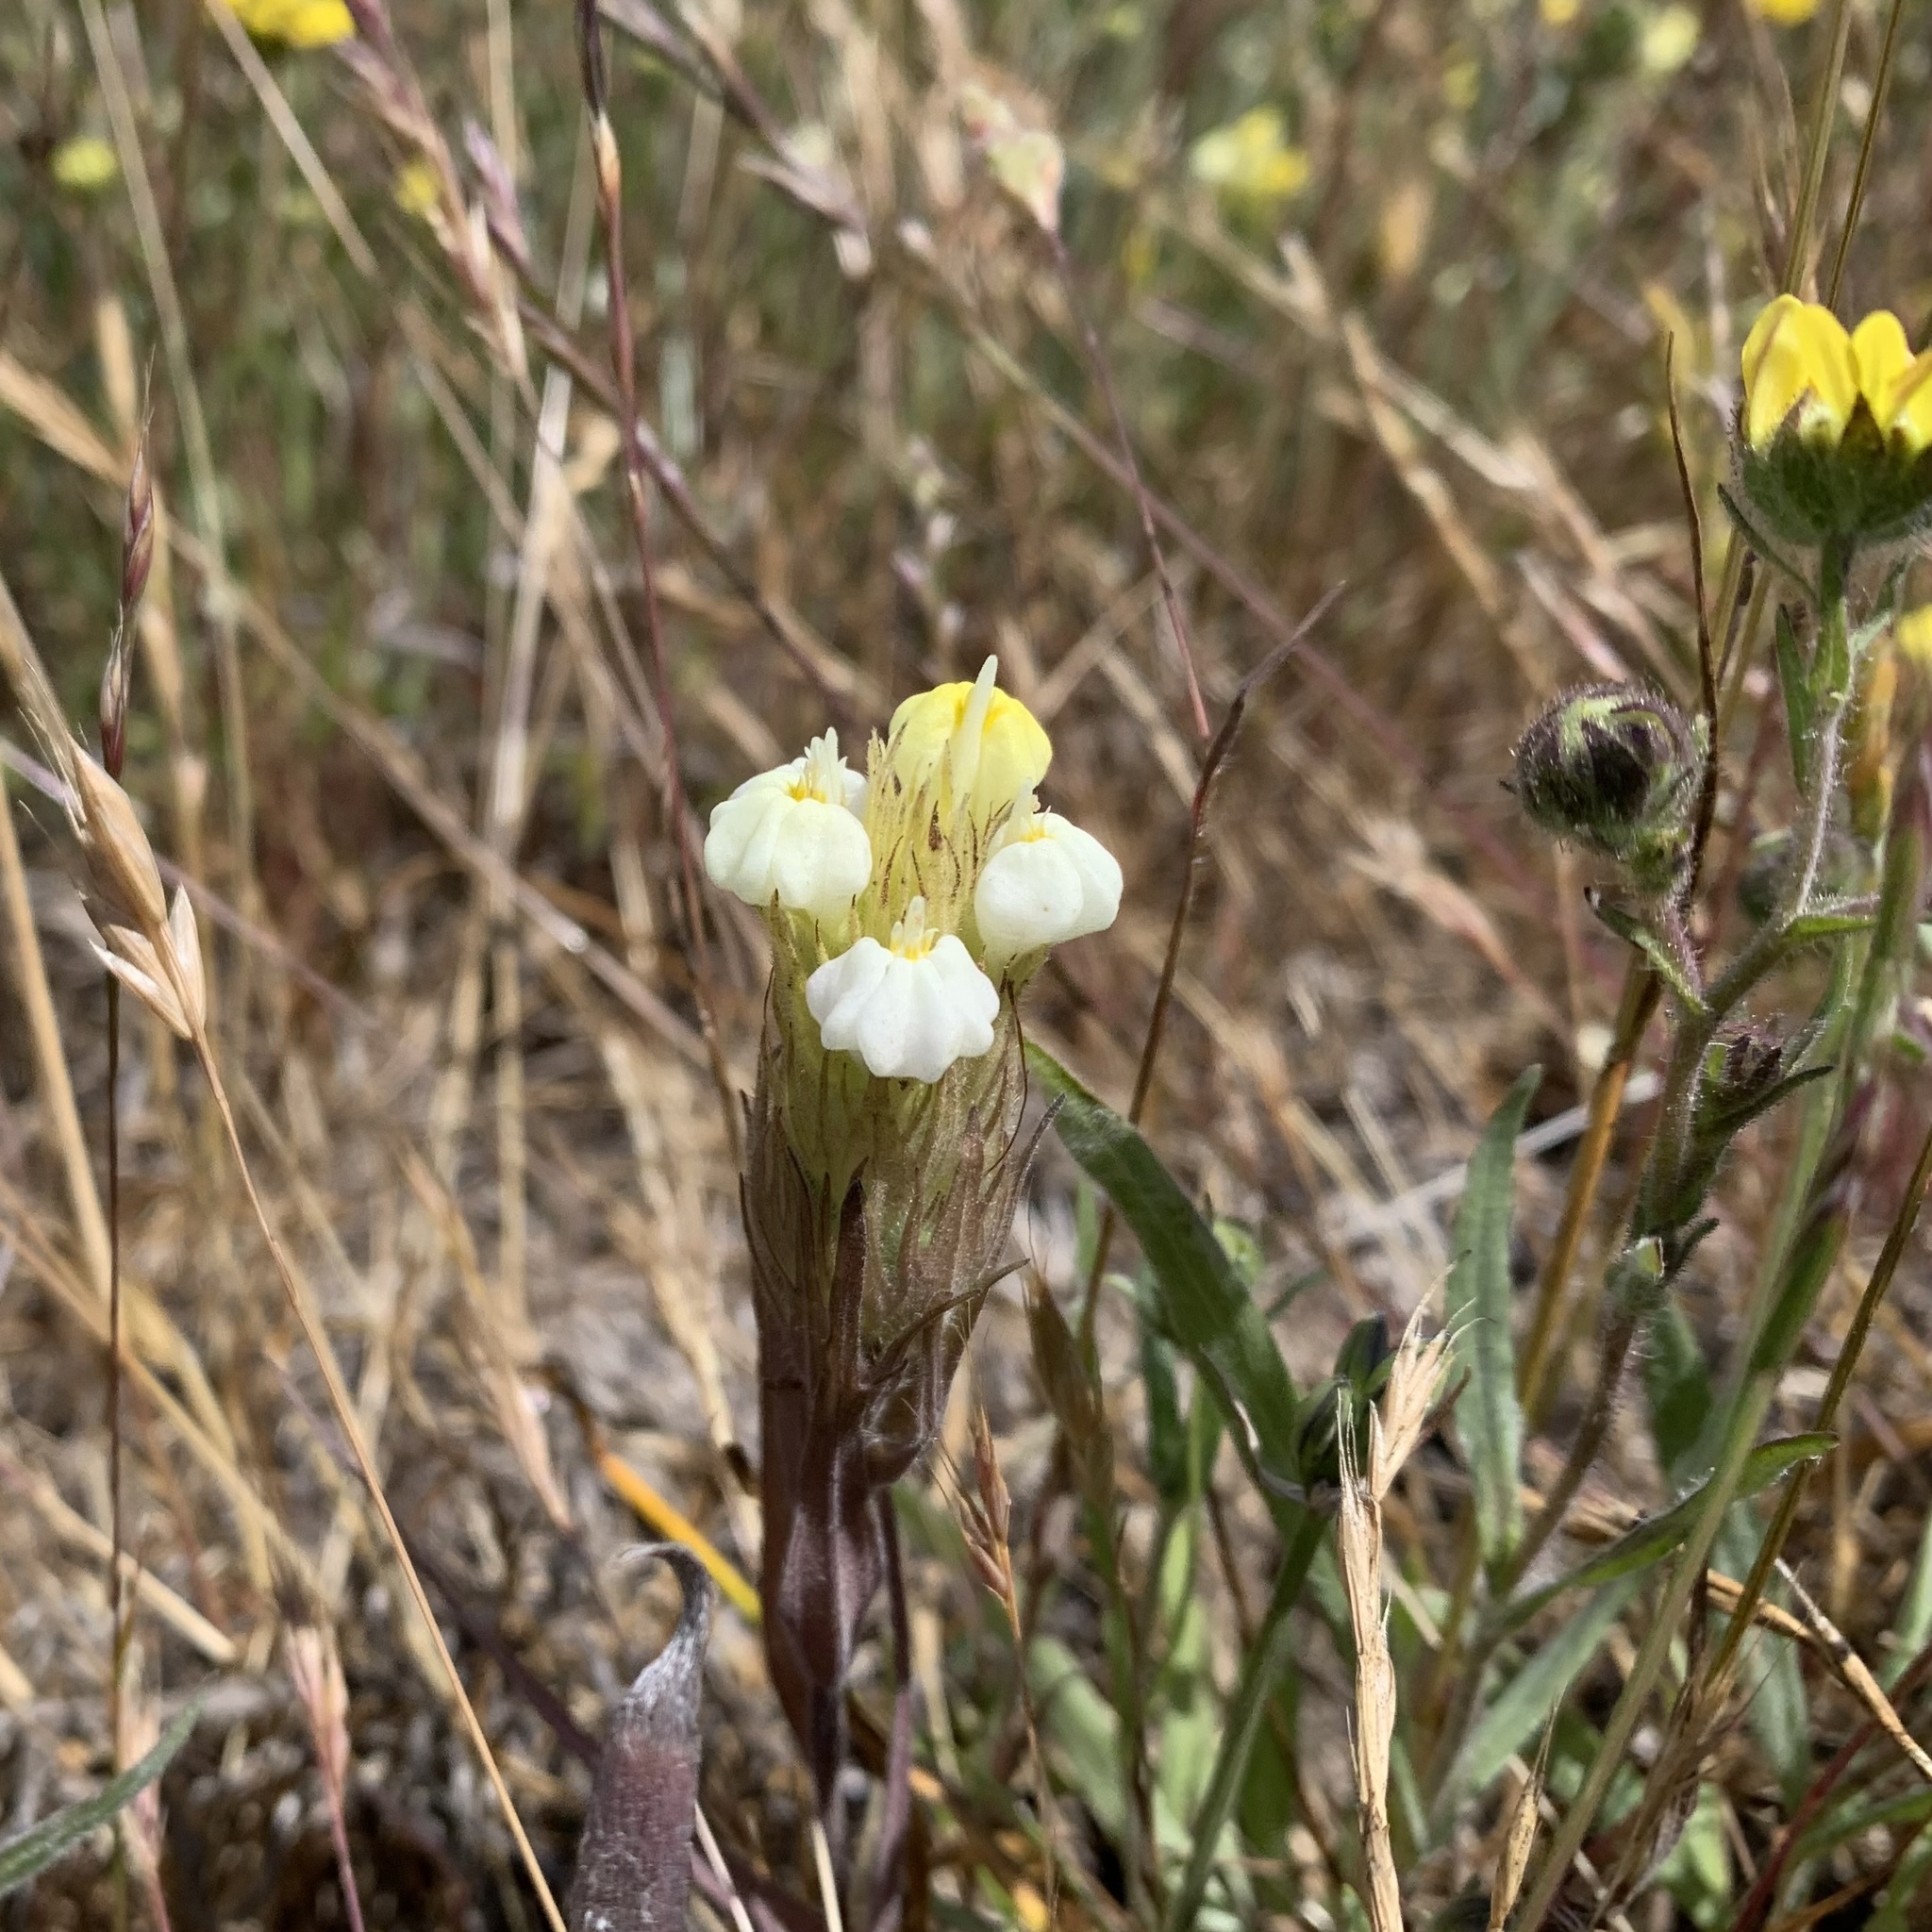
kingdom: Plantae
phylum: Tracheophyta
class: Magnoliopsida
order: Lamiales
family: Orobanchaceae
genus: Castilleja
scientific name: Castilleja rubicundula
